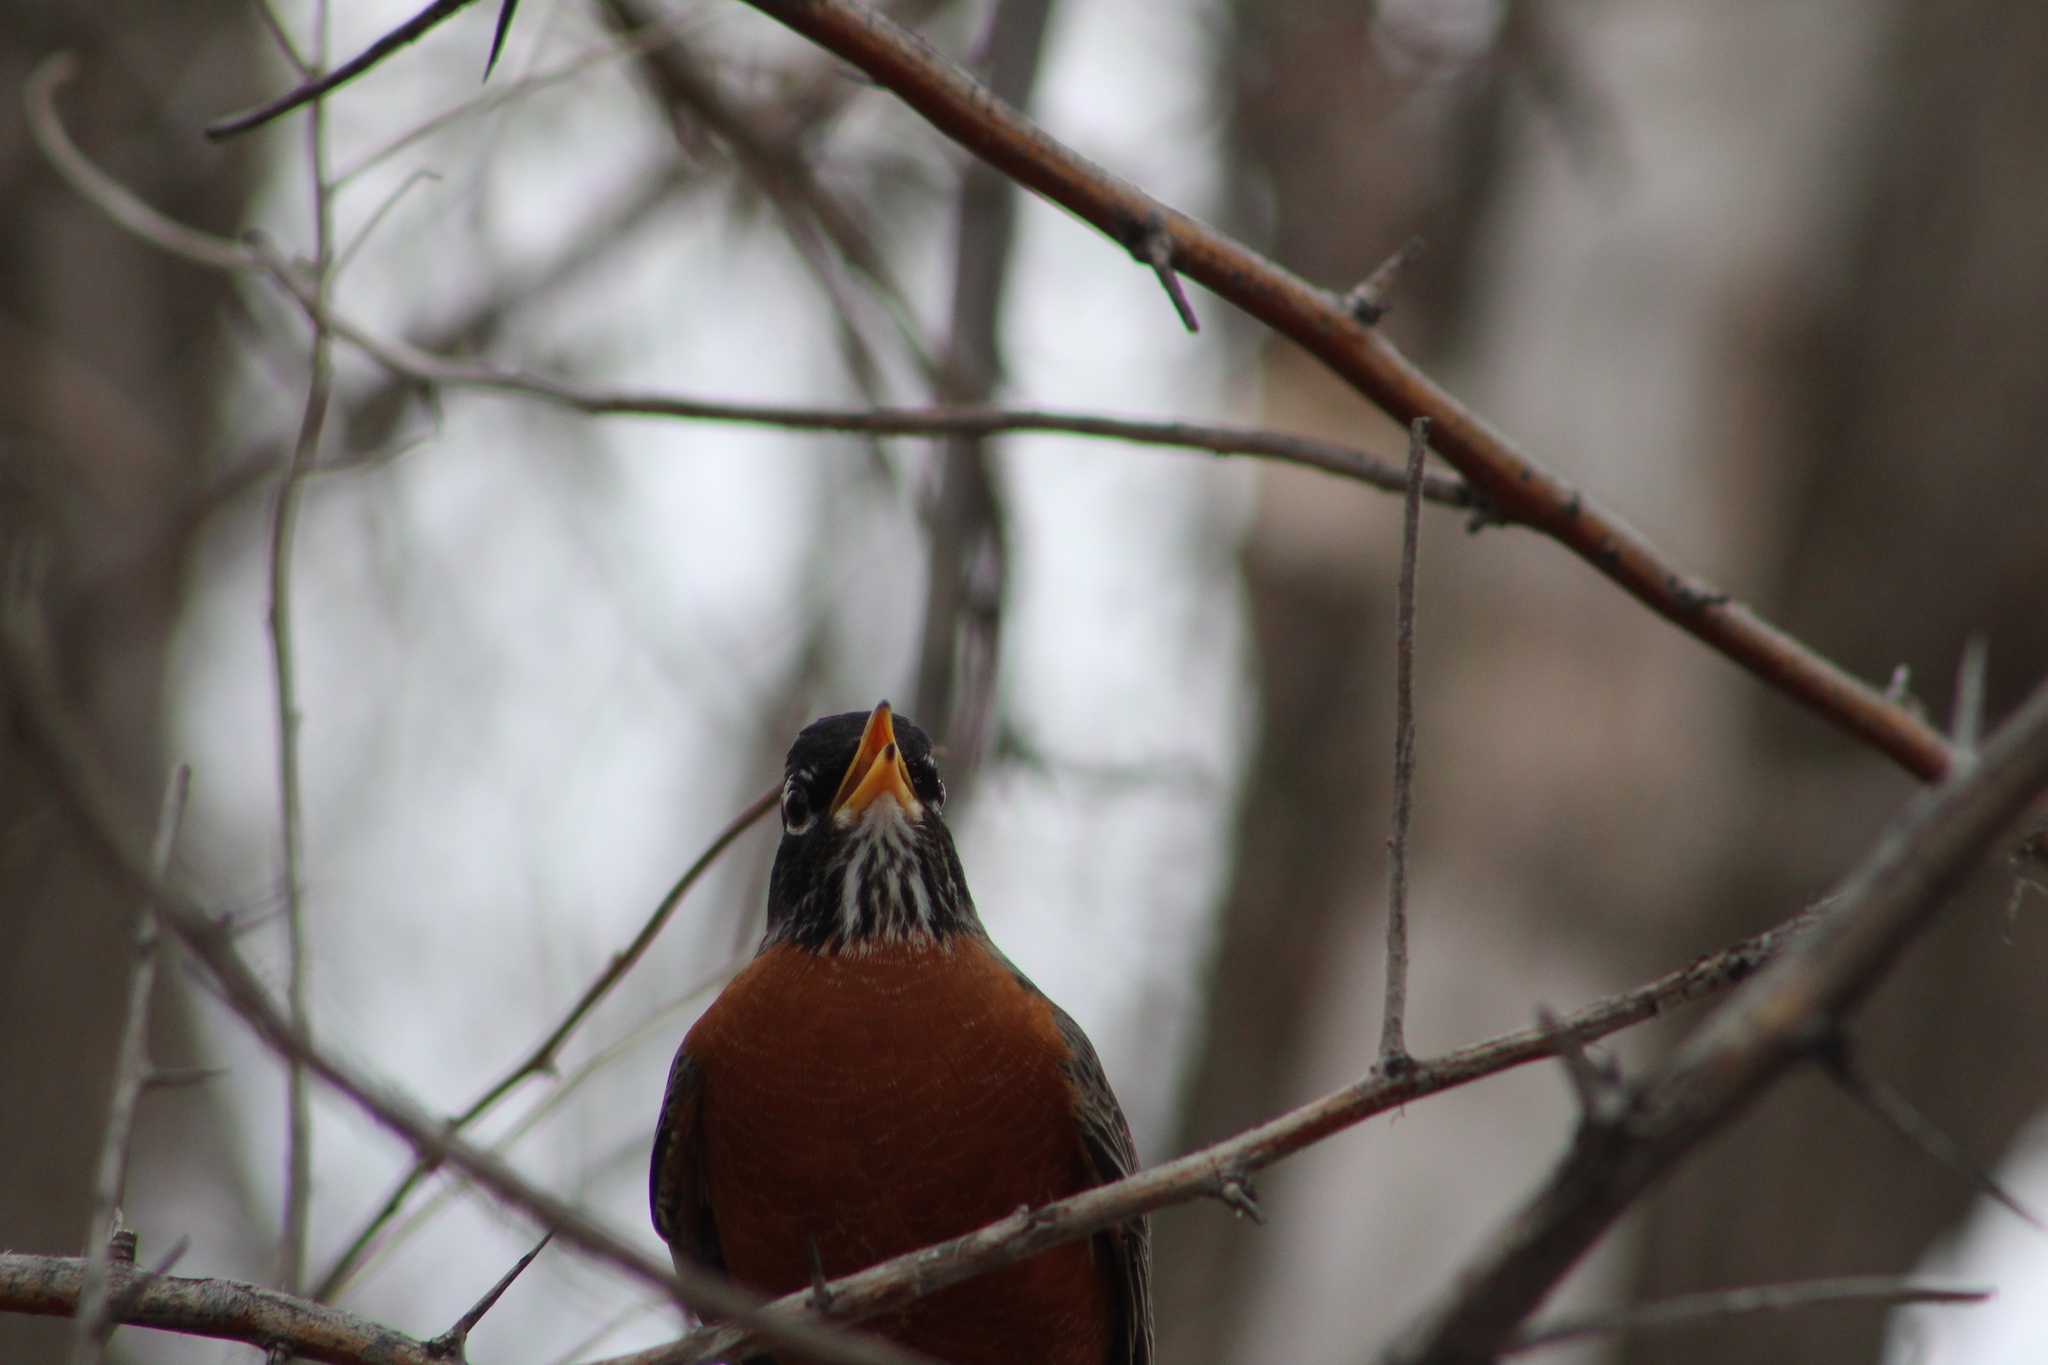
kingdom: Animalia
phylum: Chordata
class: Aves
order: Passeriformes
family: Turdidae
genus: Turdus
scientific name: Turdus migratorius
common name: American robin
